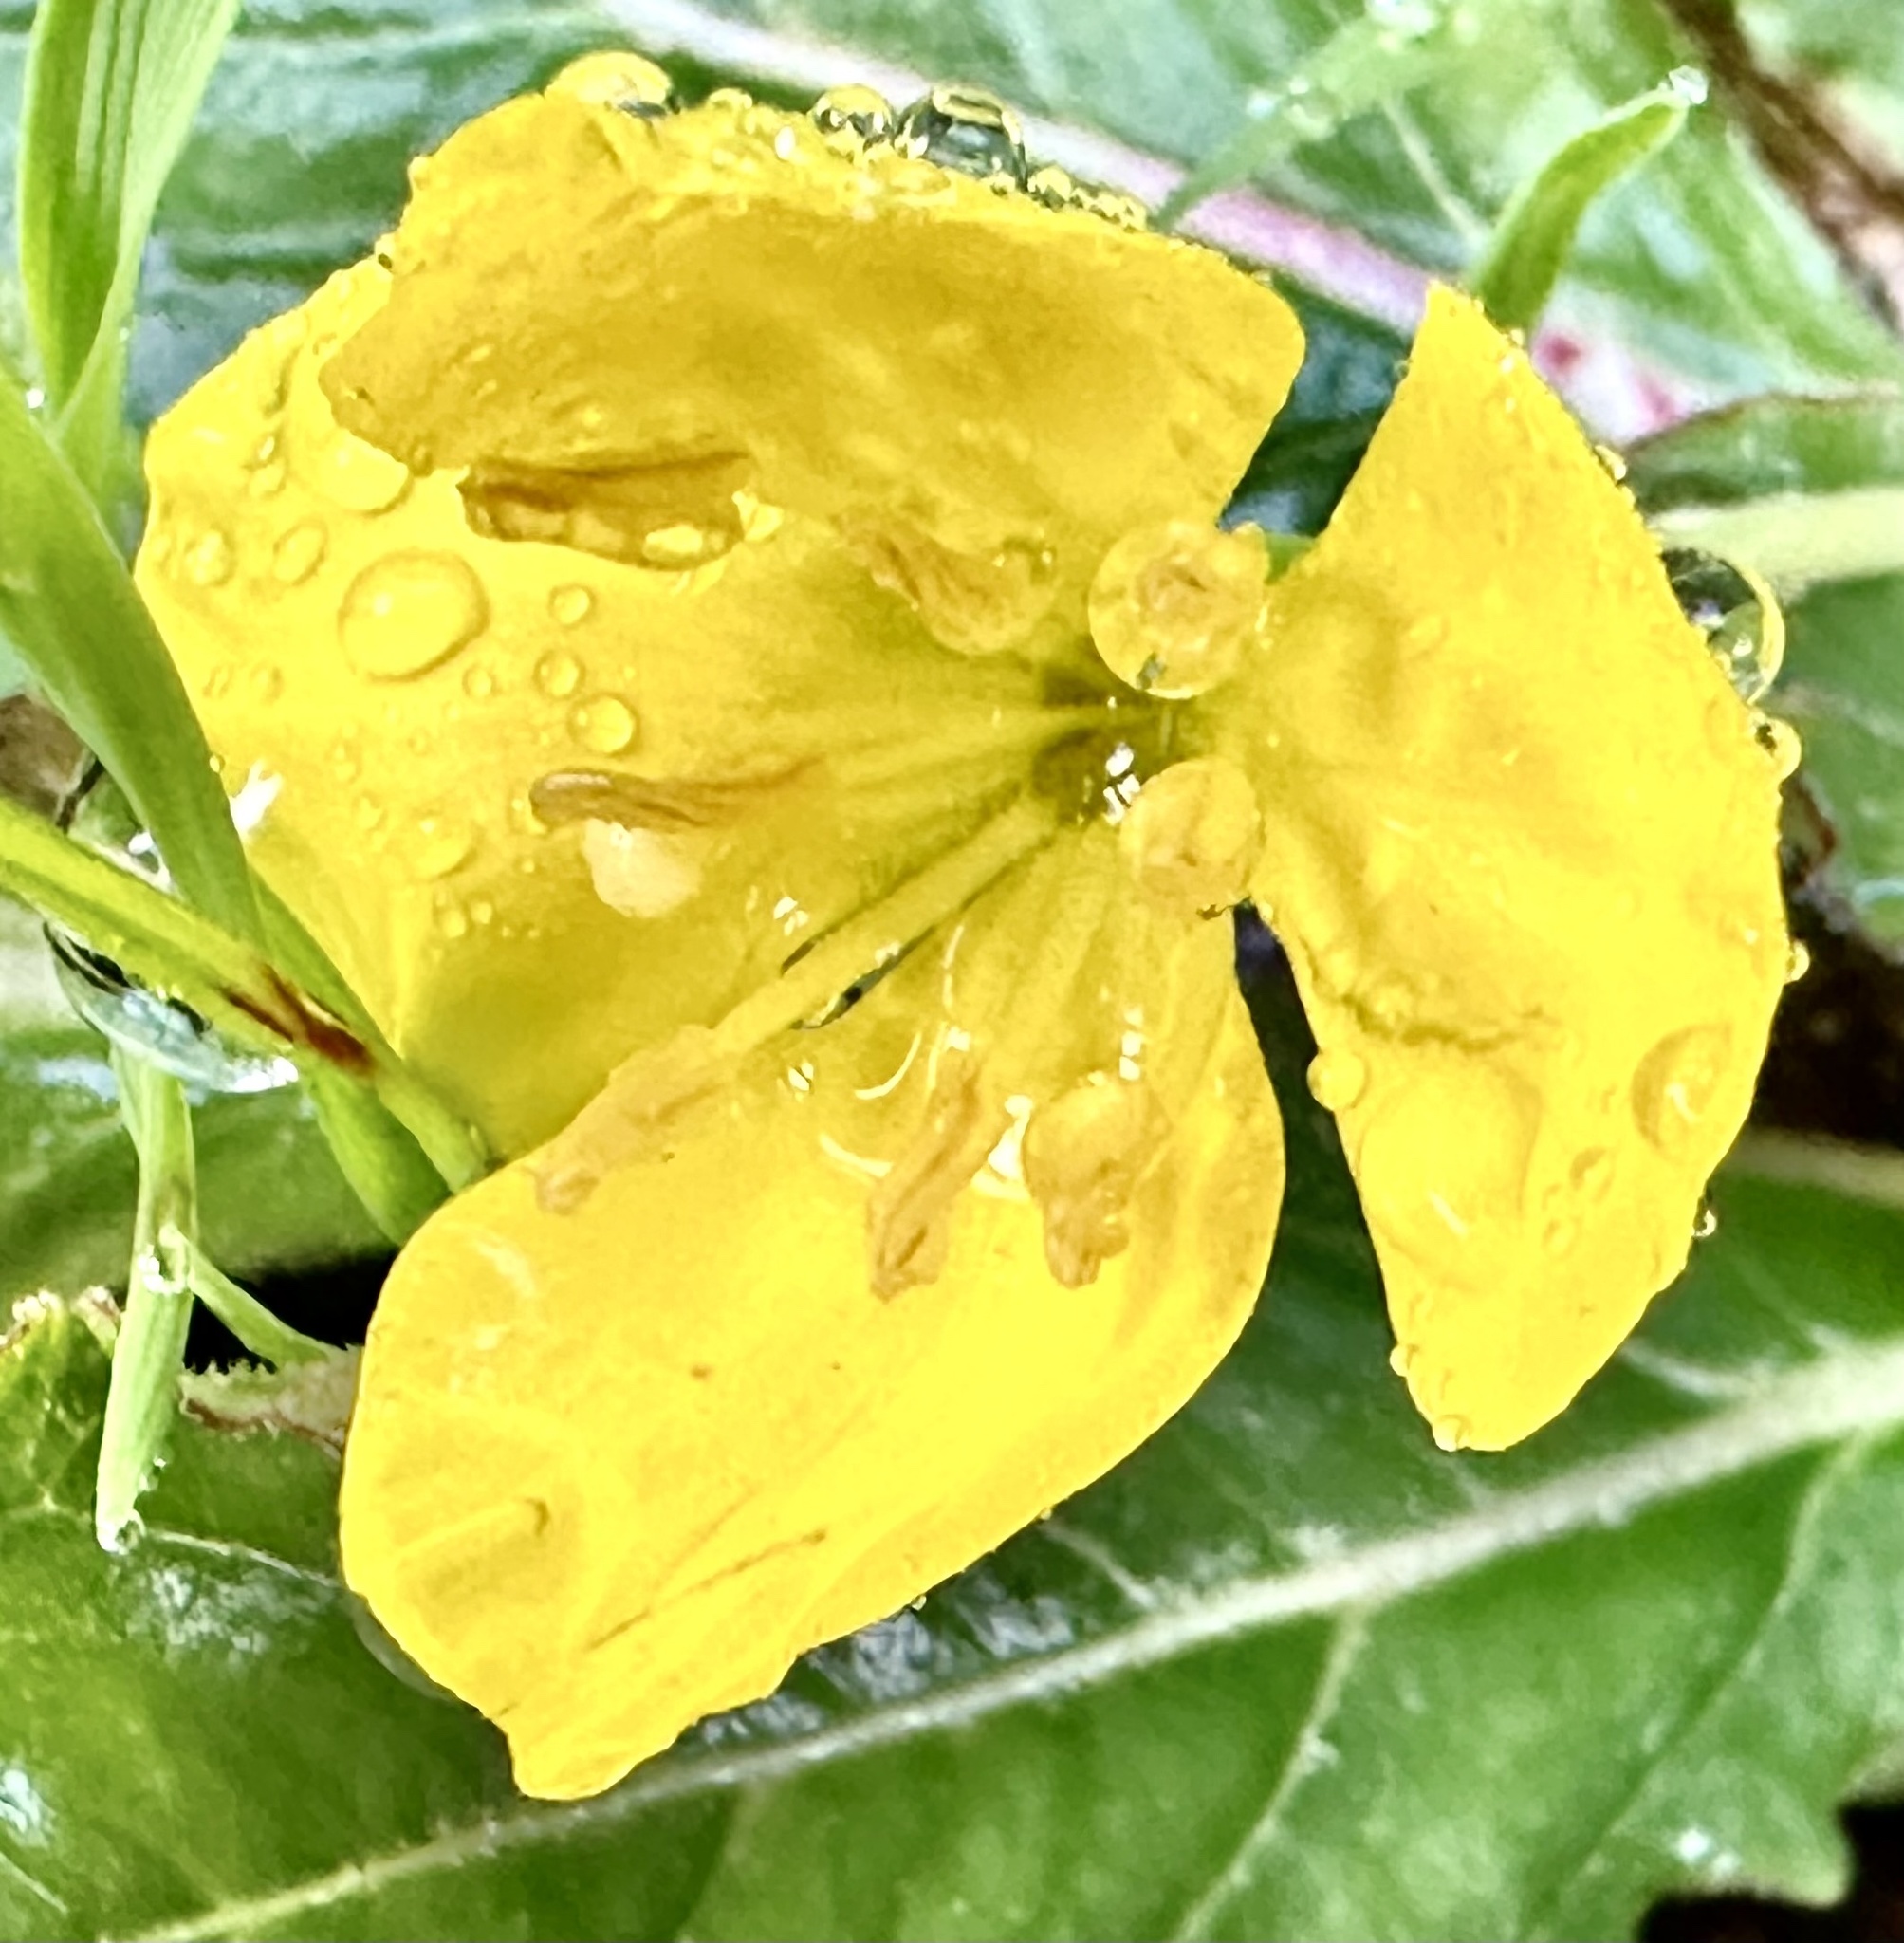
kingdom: Plantae
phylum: Tracheophyta
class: Magnoliopsida
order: Myrtales
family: Onagraceae
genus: Taraxia
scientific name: Taraxia ovata
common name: Goldeneggs
